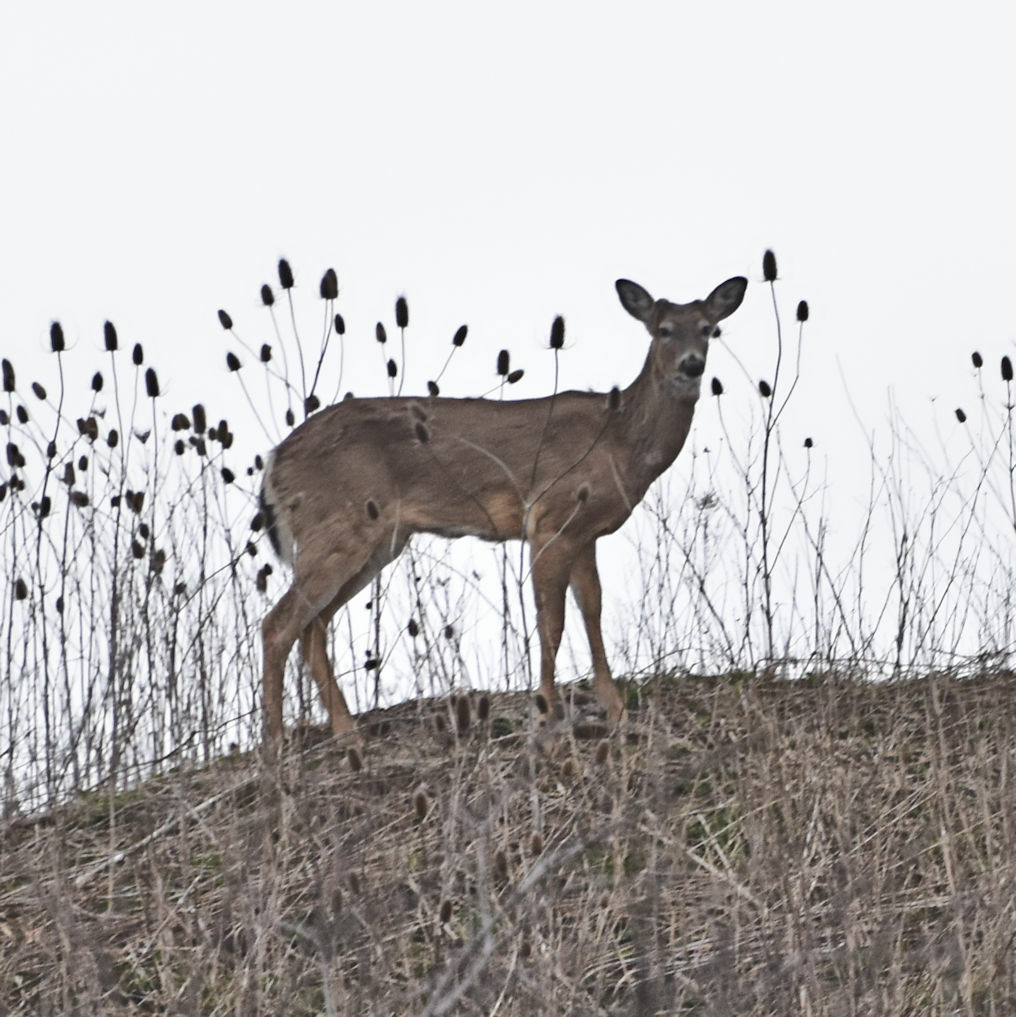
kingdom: Animalia
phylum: Chordata
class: Mammalia
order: Artiodactyla
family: Cervidae
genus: Odocoileus
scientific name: Odocoileus virginianus
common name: White-tailed deer
